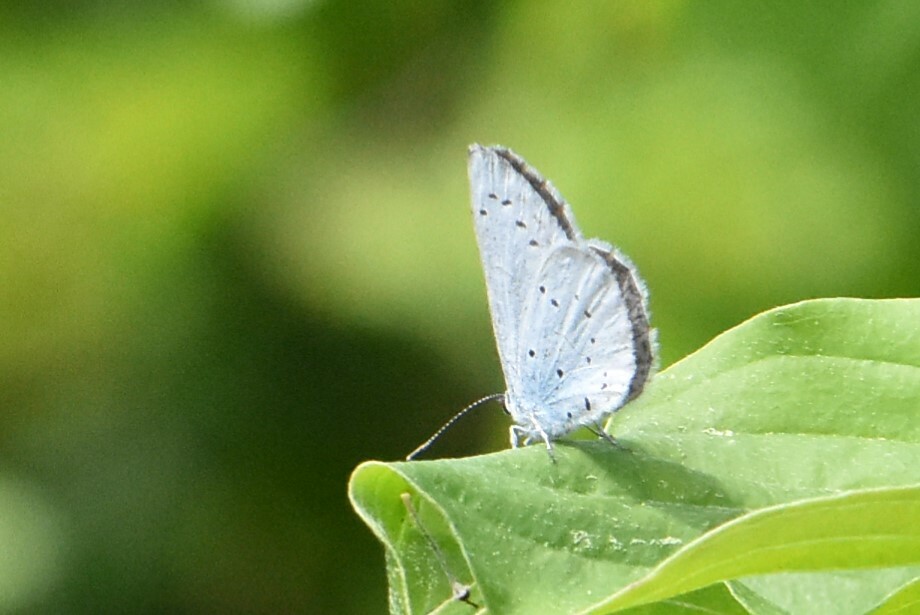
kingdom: Animalia
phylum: Arthropoda
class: Insecta
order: Lepidoptera
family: Lycaenidae
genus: Celastrina
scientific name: Celastrina argiolus
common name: Holly blue
